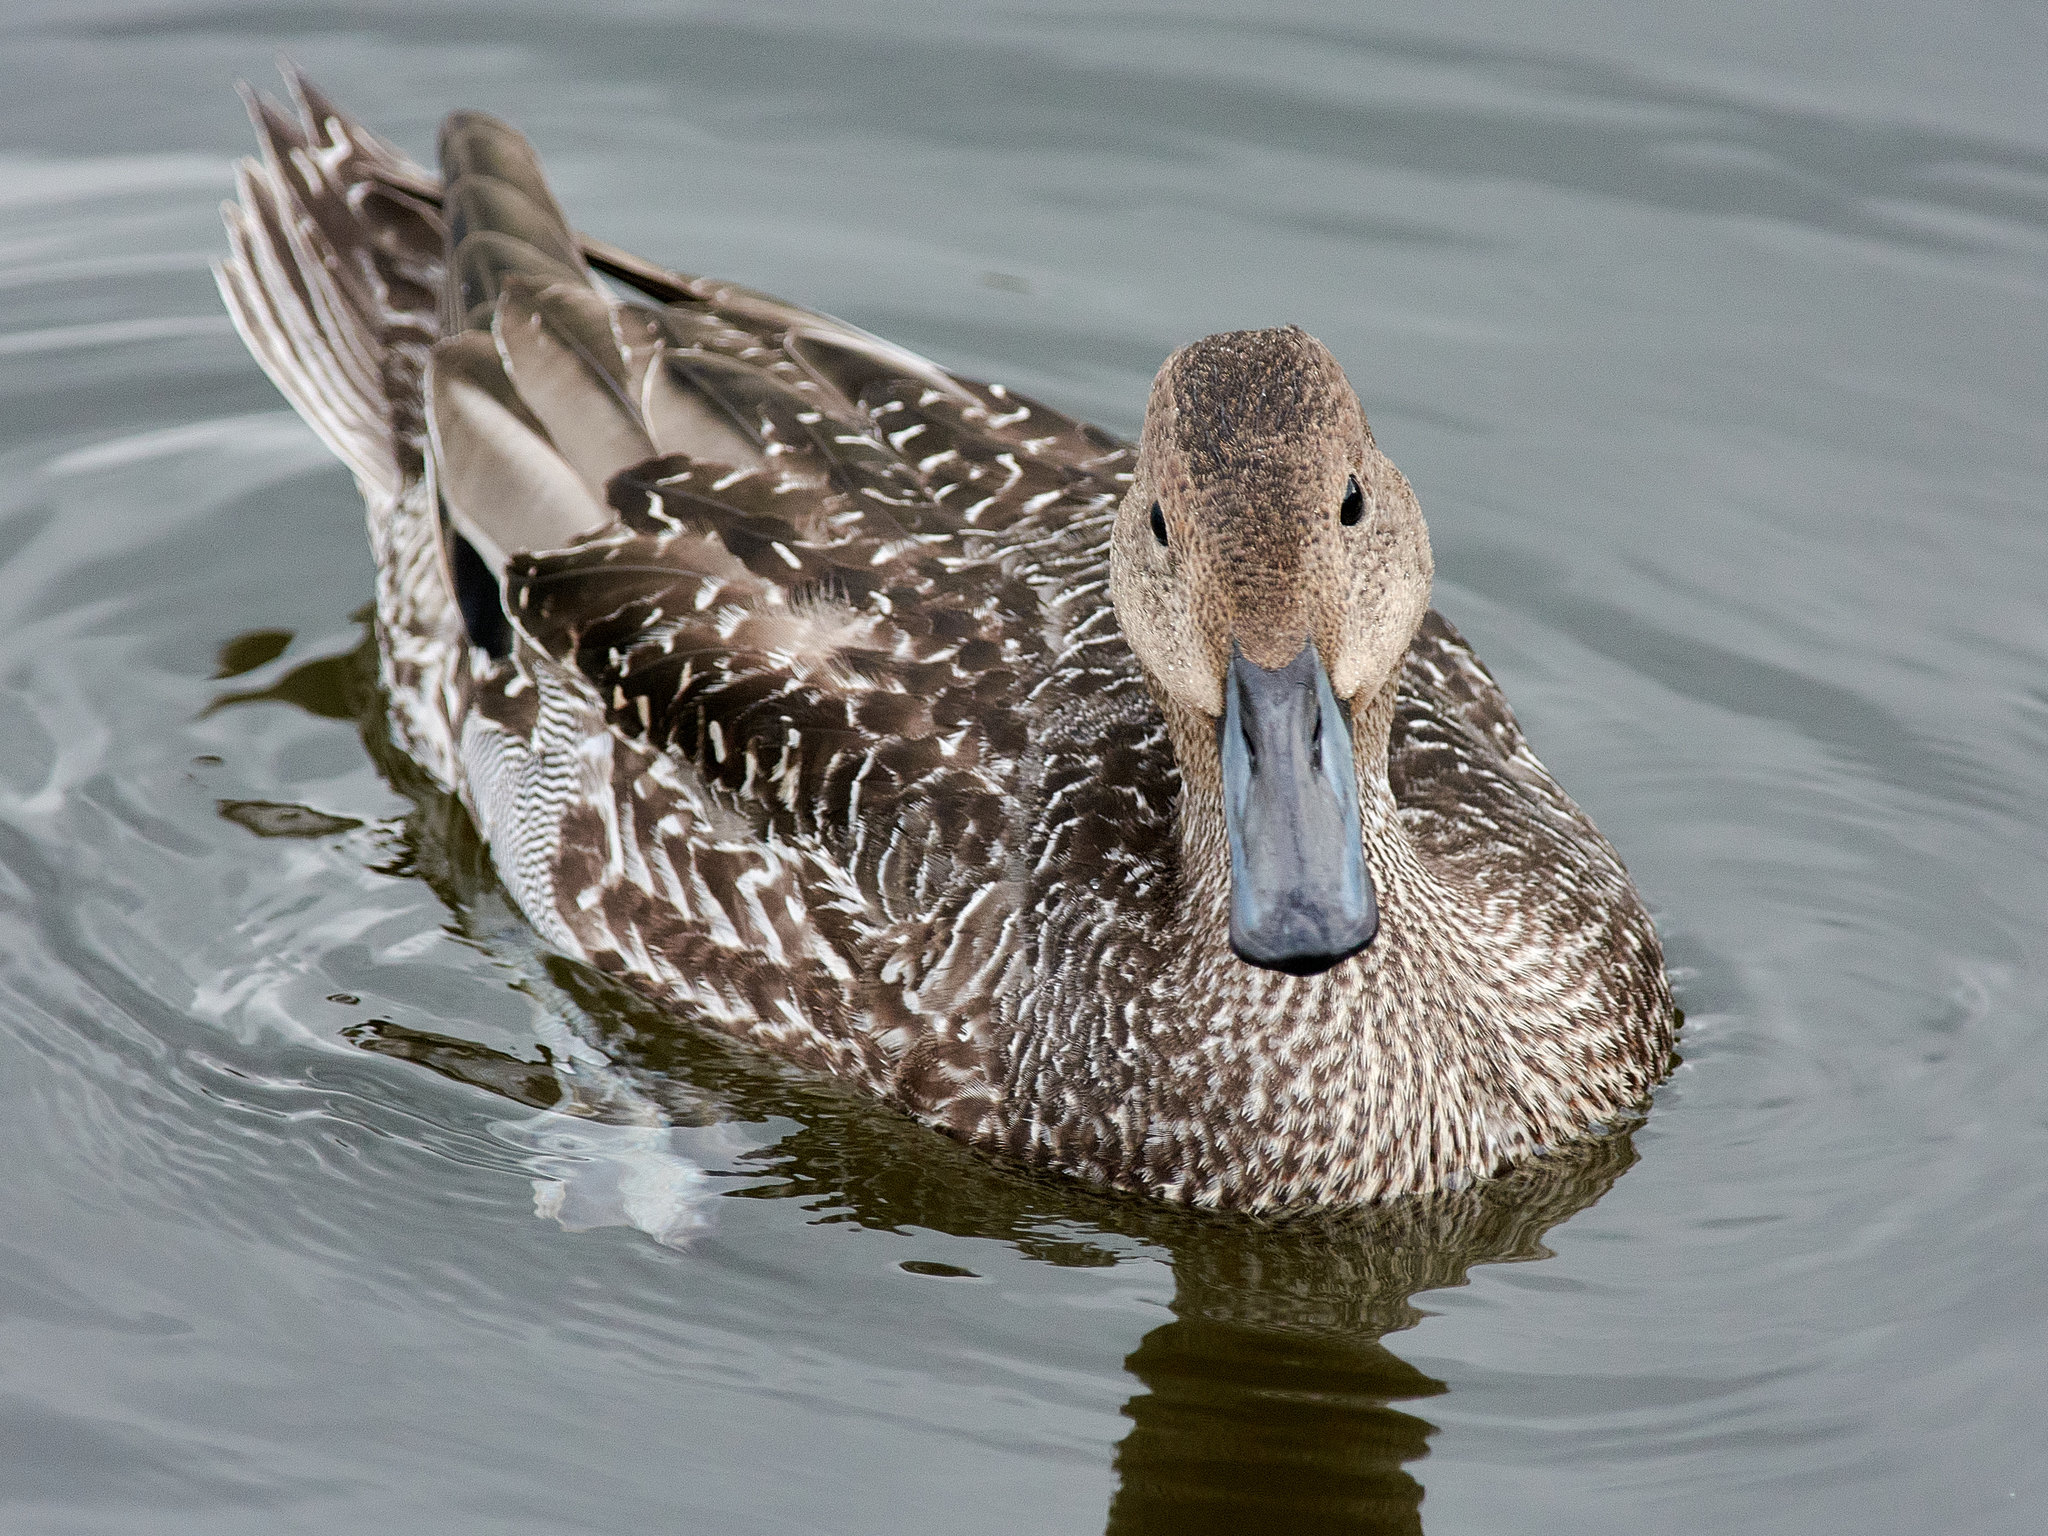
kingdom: Animalia
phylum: Chordata
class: Aves
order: Anseriformes
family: Anatidae
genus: Anas
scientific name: Anas acuta
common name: Northern pintail
